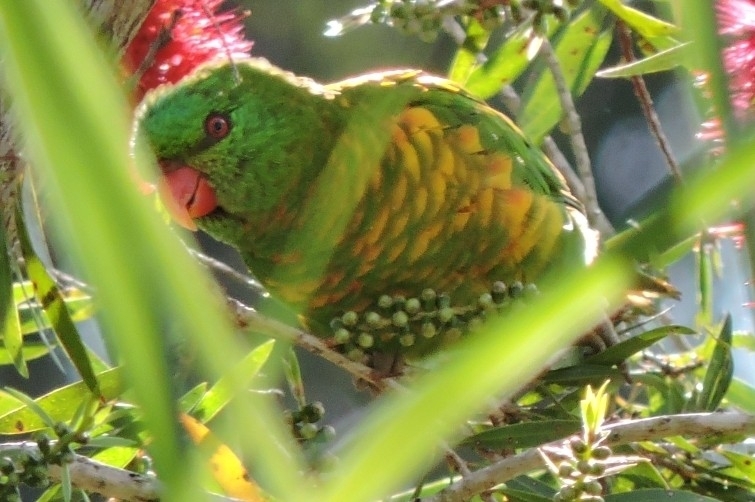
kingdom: Animalia
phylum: Chordata
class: Aves
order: Psittaciformes
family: Psittacidae
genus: Trichoglossus
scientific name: Trichoglossus chlorolepidotus
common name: Scaly-breasted lorikeet
